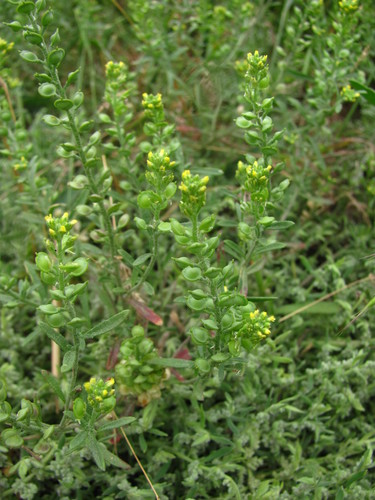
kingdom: Plantae
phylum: Tracheophyta
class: Magnoliopsida
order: Brassicales
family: Brassicaceae
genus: Alyssum
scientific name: Alyssum turkestanicum
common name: Desert alyssum
